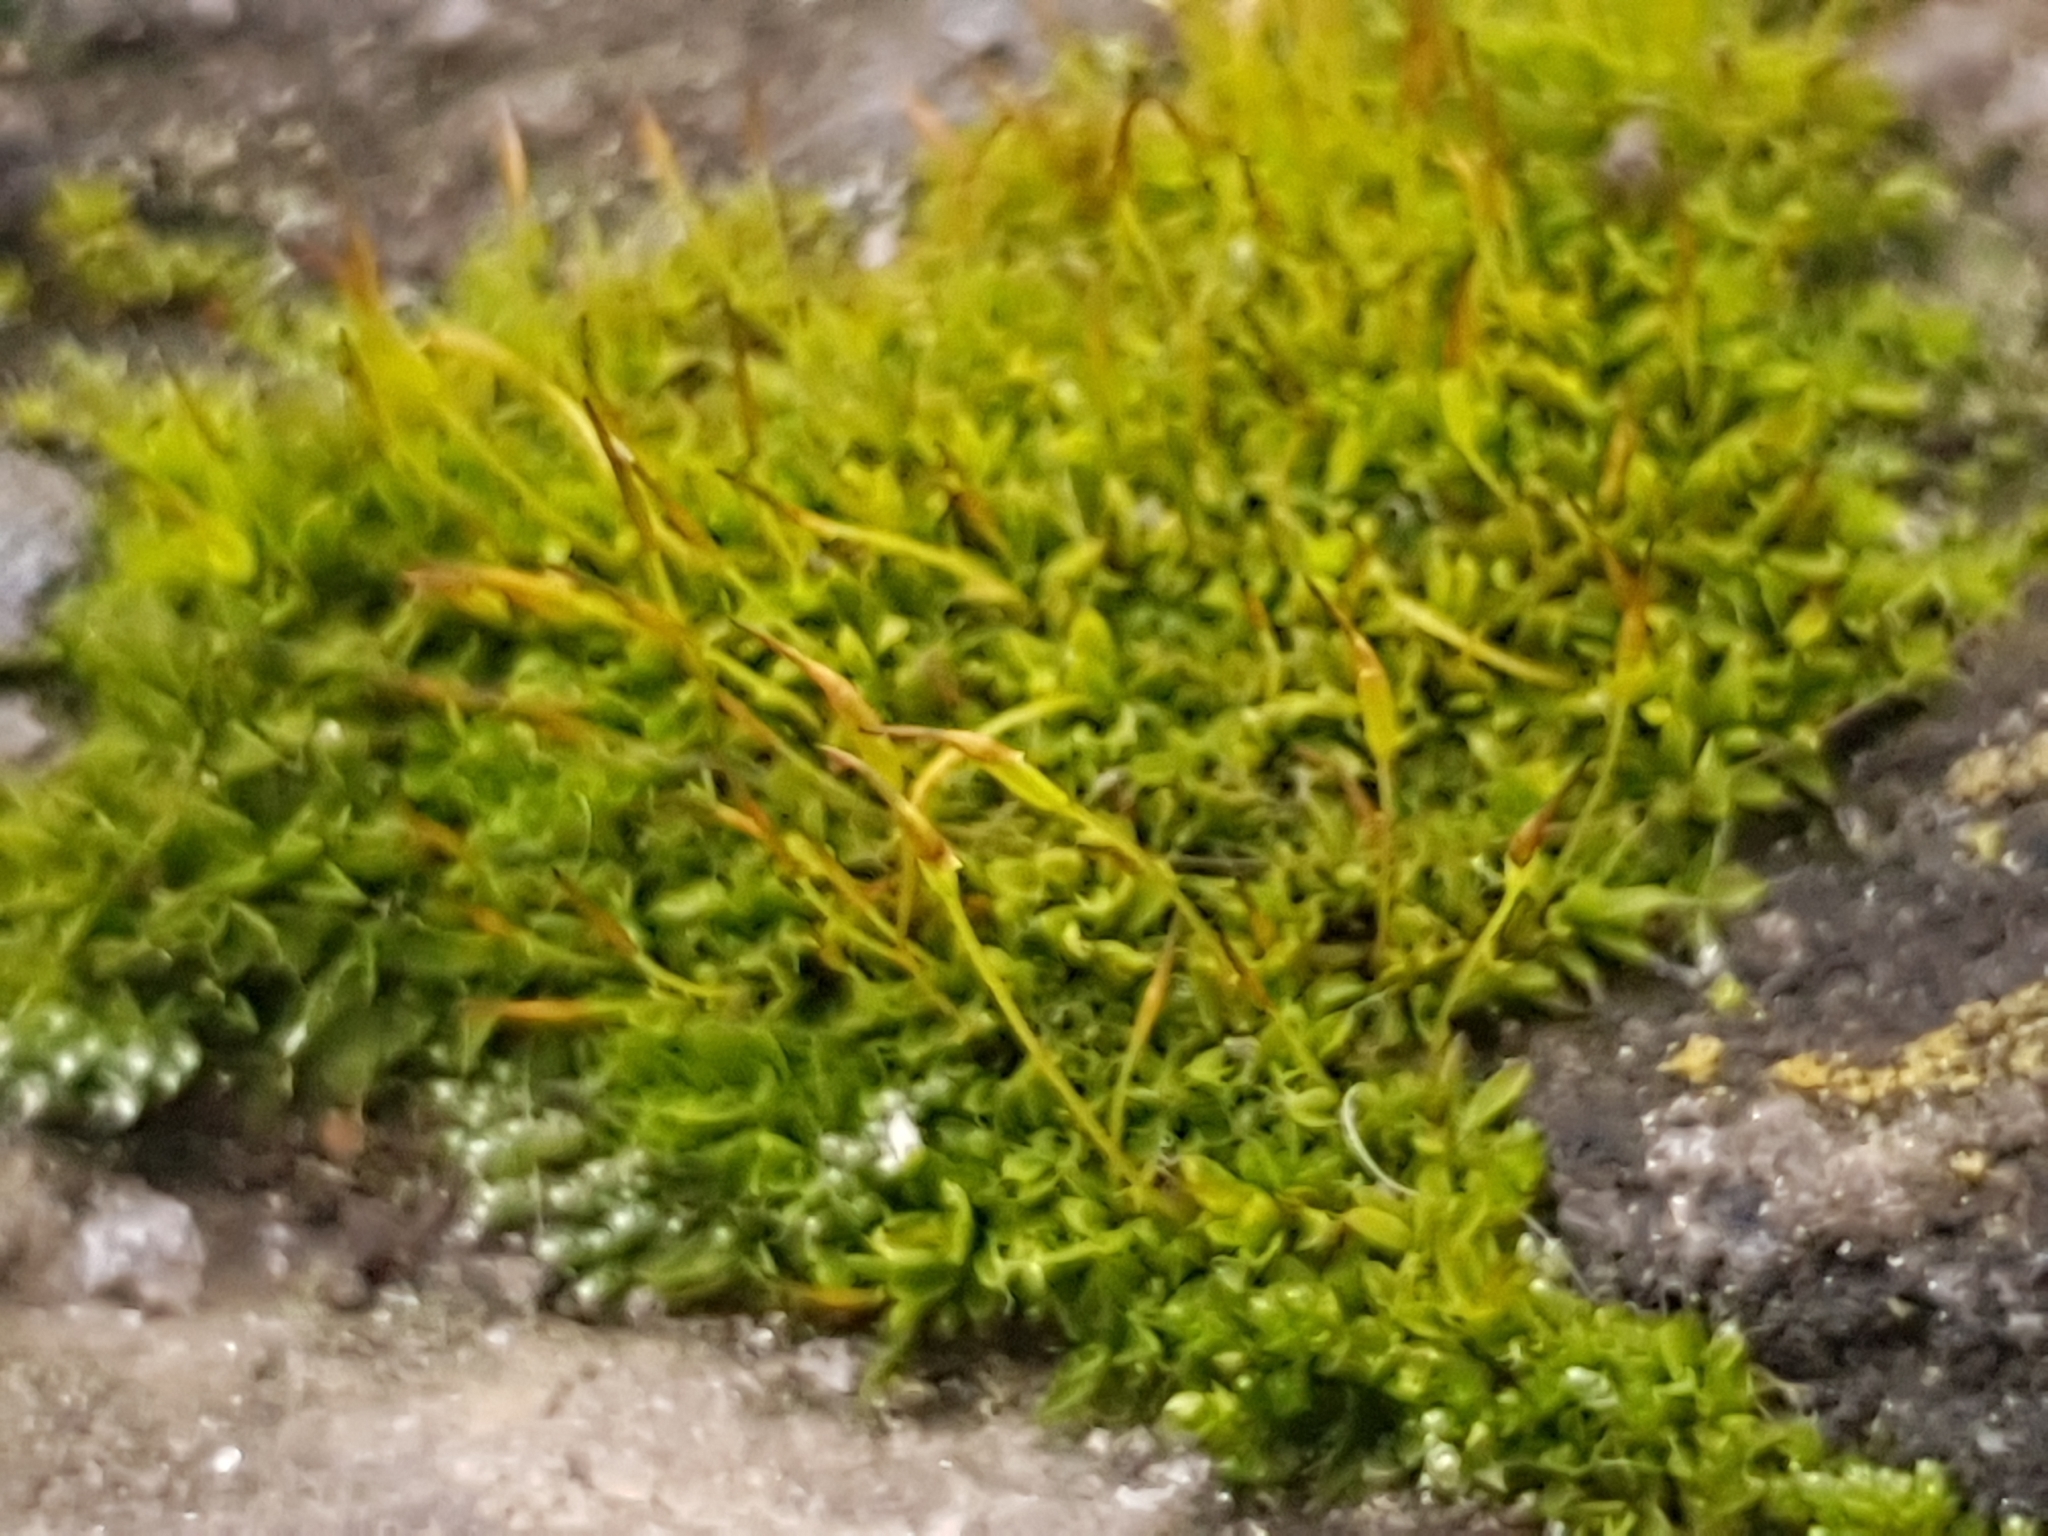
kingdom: Plantae
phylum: Bryophyta
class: Bryopsida
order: Pottiales
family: Pottiaceae
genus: Tortula
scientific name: Tortula muralis
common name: Wall screw-moss
